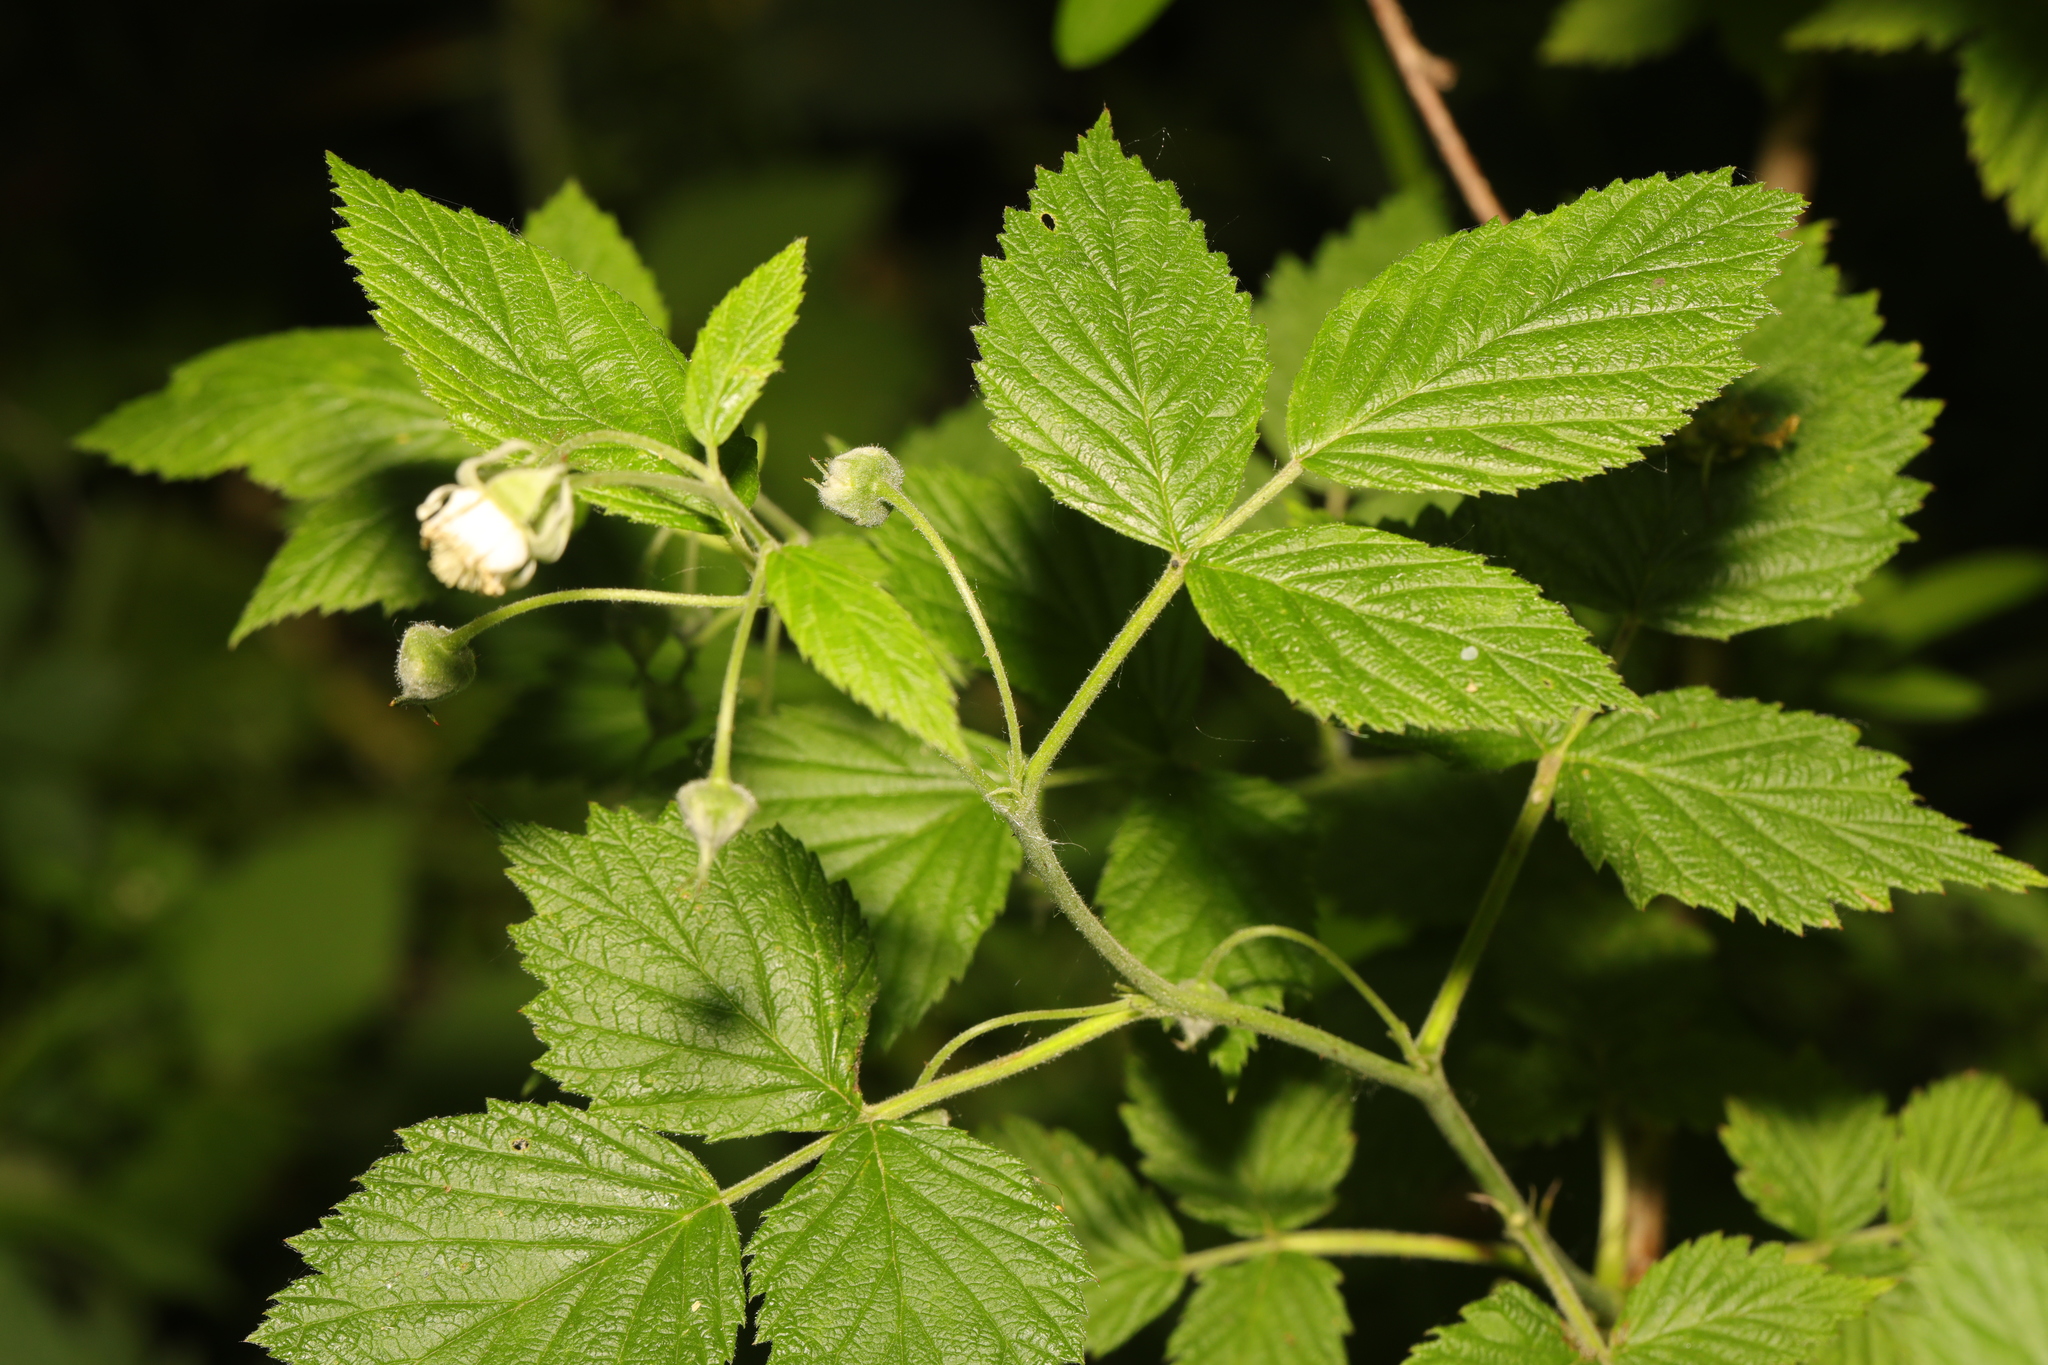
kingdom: Plantae
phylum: Tracheophyta
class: Magnoliopsida
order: Rosales
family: Rosaceae
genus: Rubus
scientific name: Rubus idaeus
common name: Raspberry
